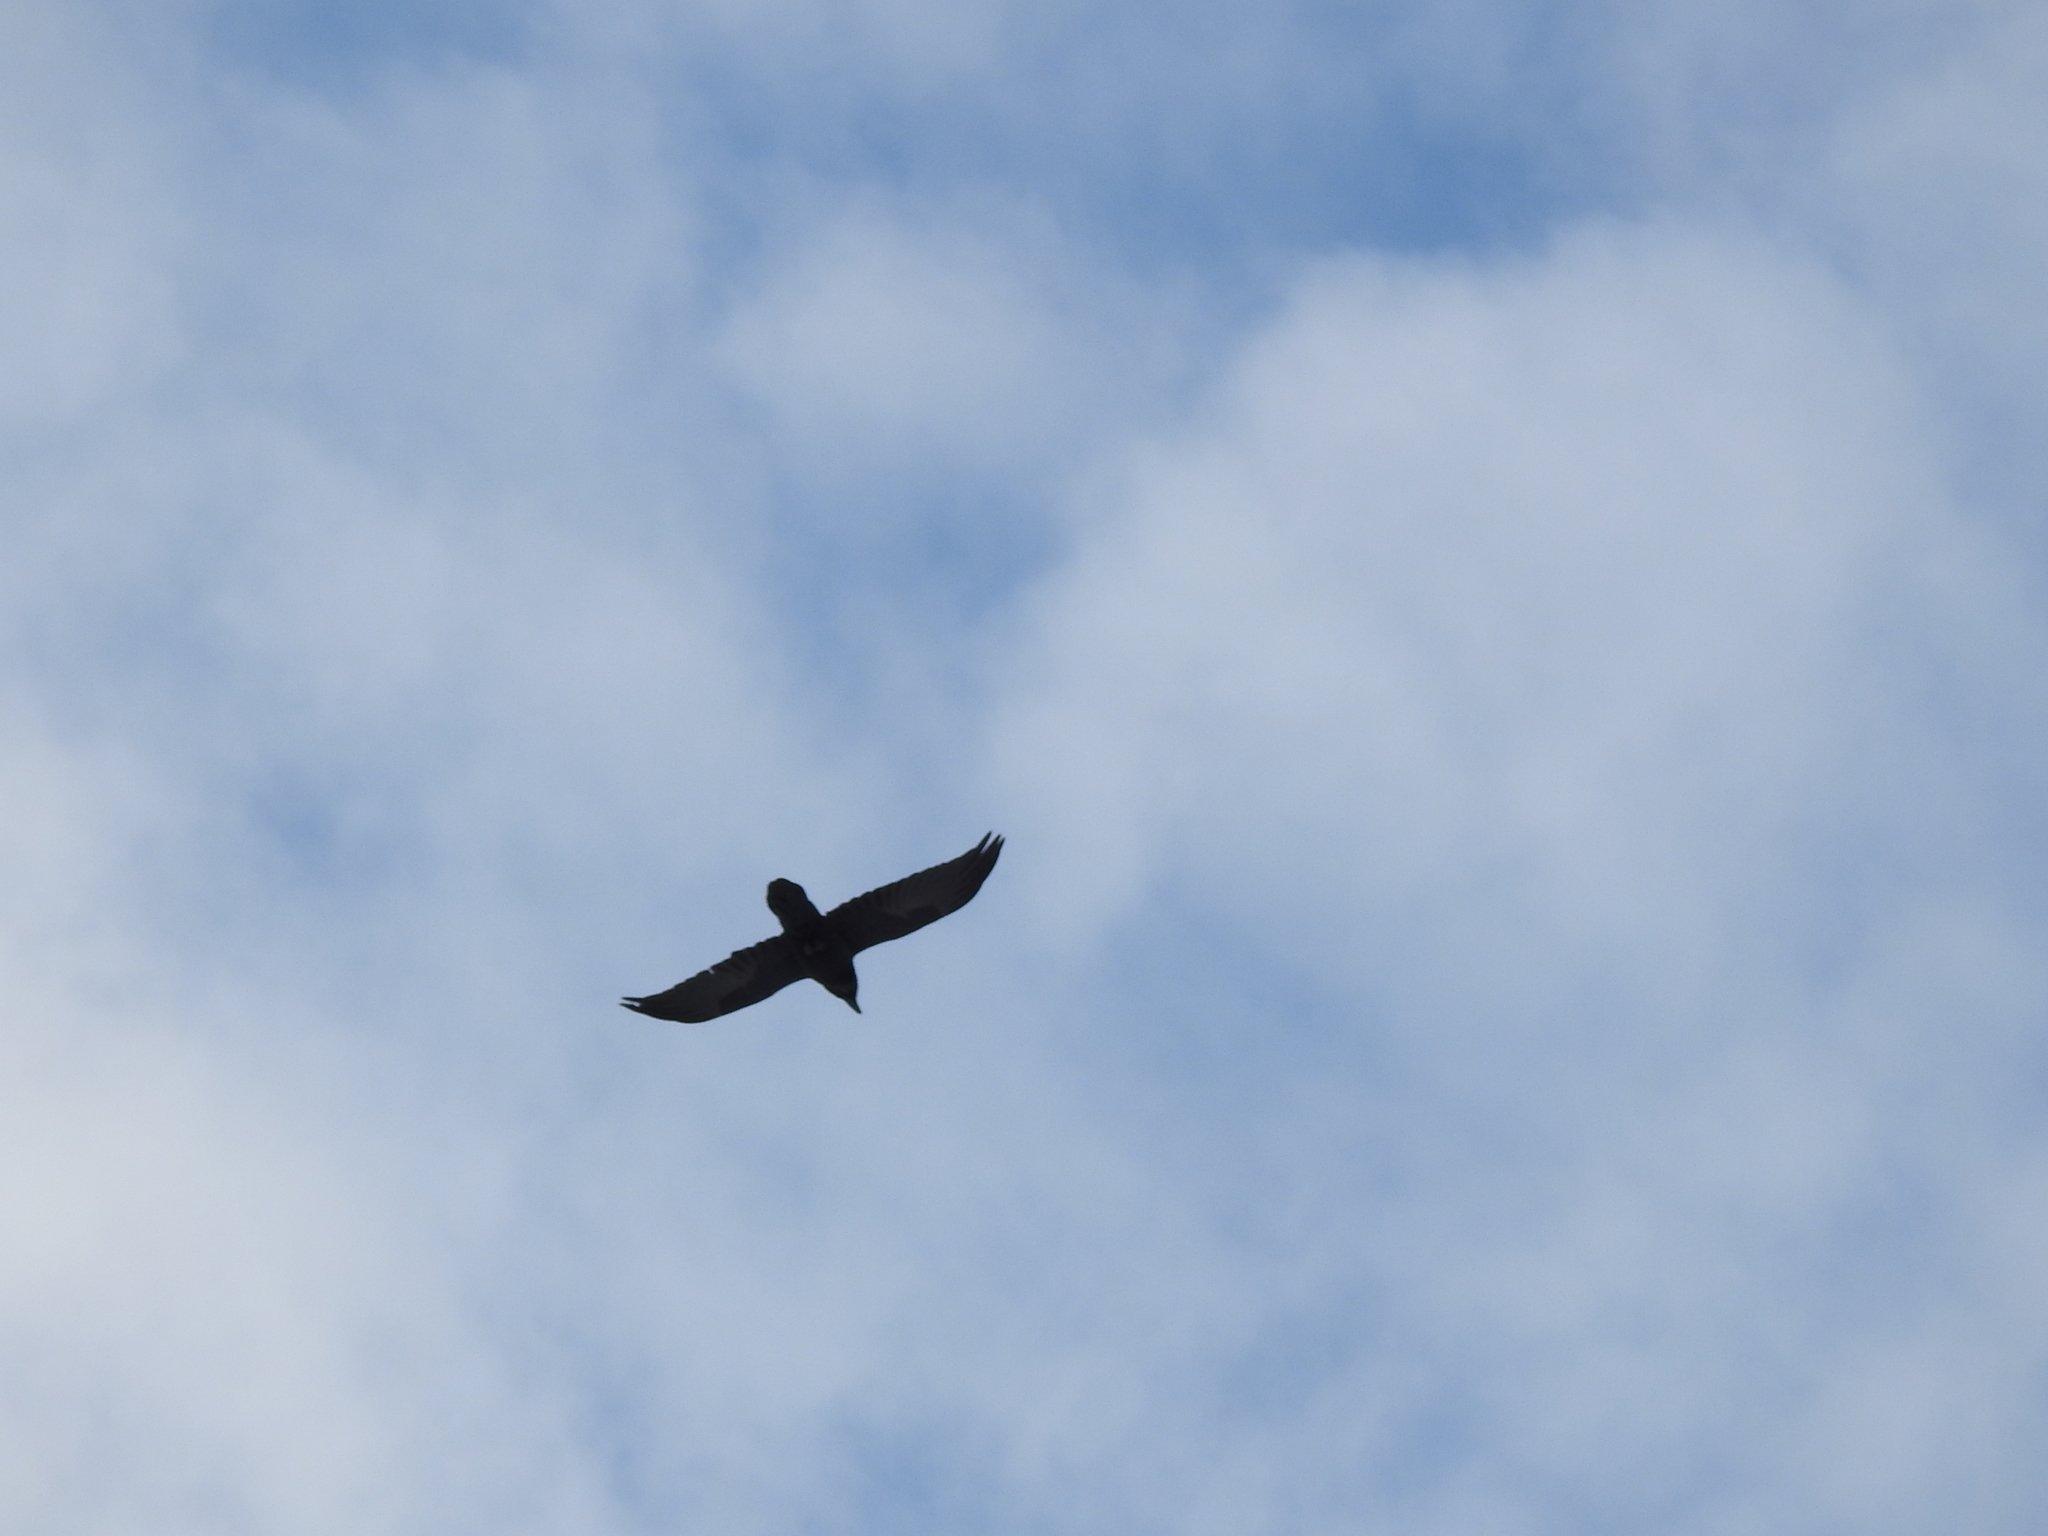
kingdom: Animalia
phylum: Chordata
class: Aves
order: Passeriformes
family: Corvidae
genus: Corvus
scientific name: Corvus corax
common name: Common raven
